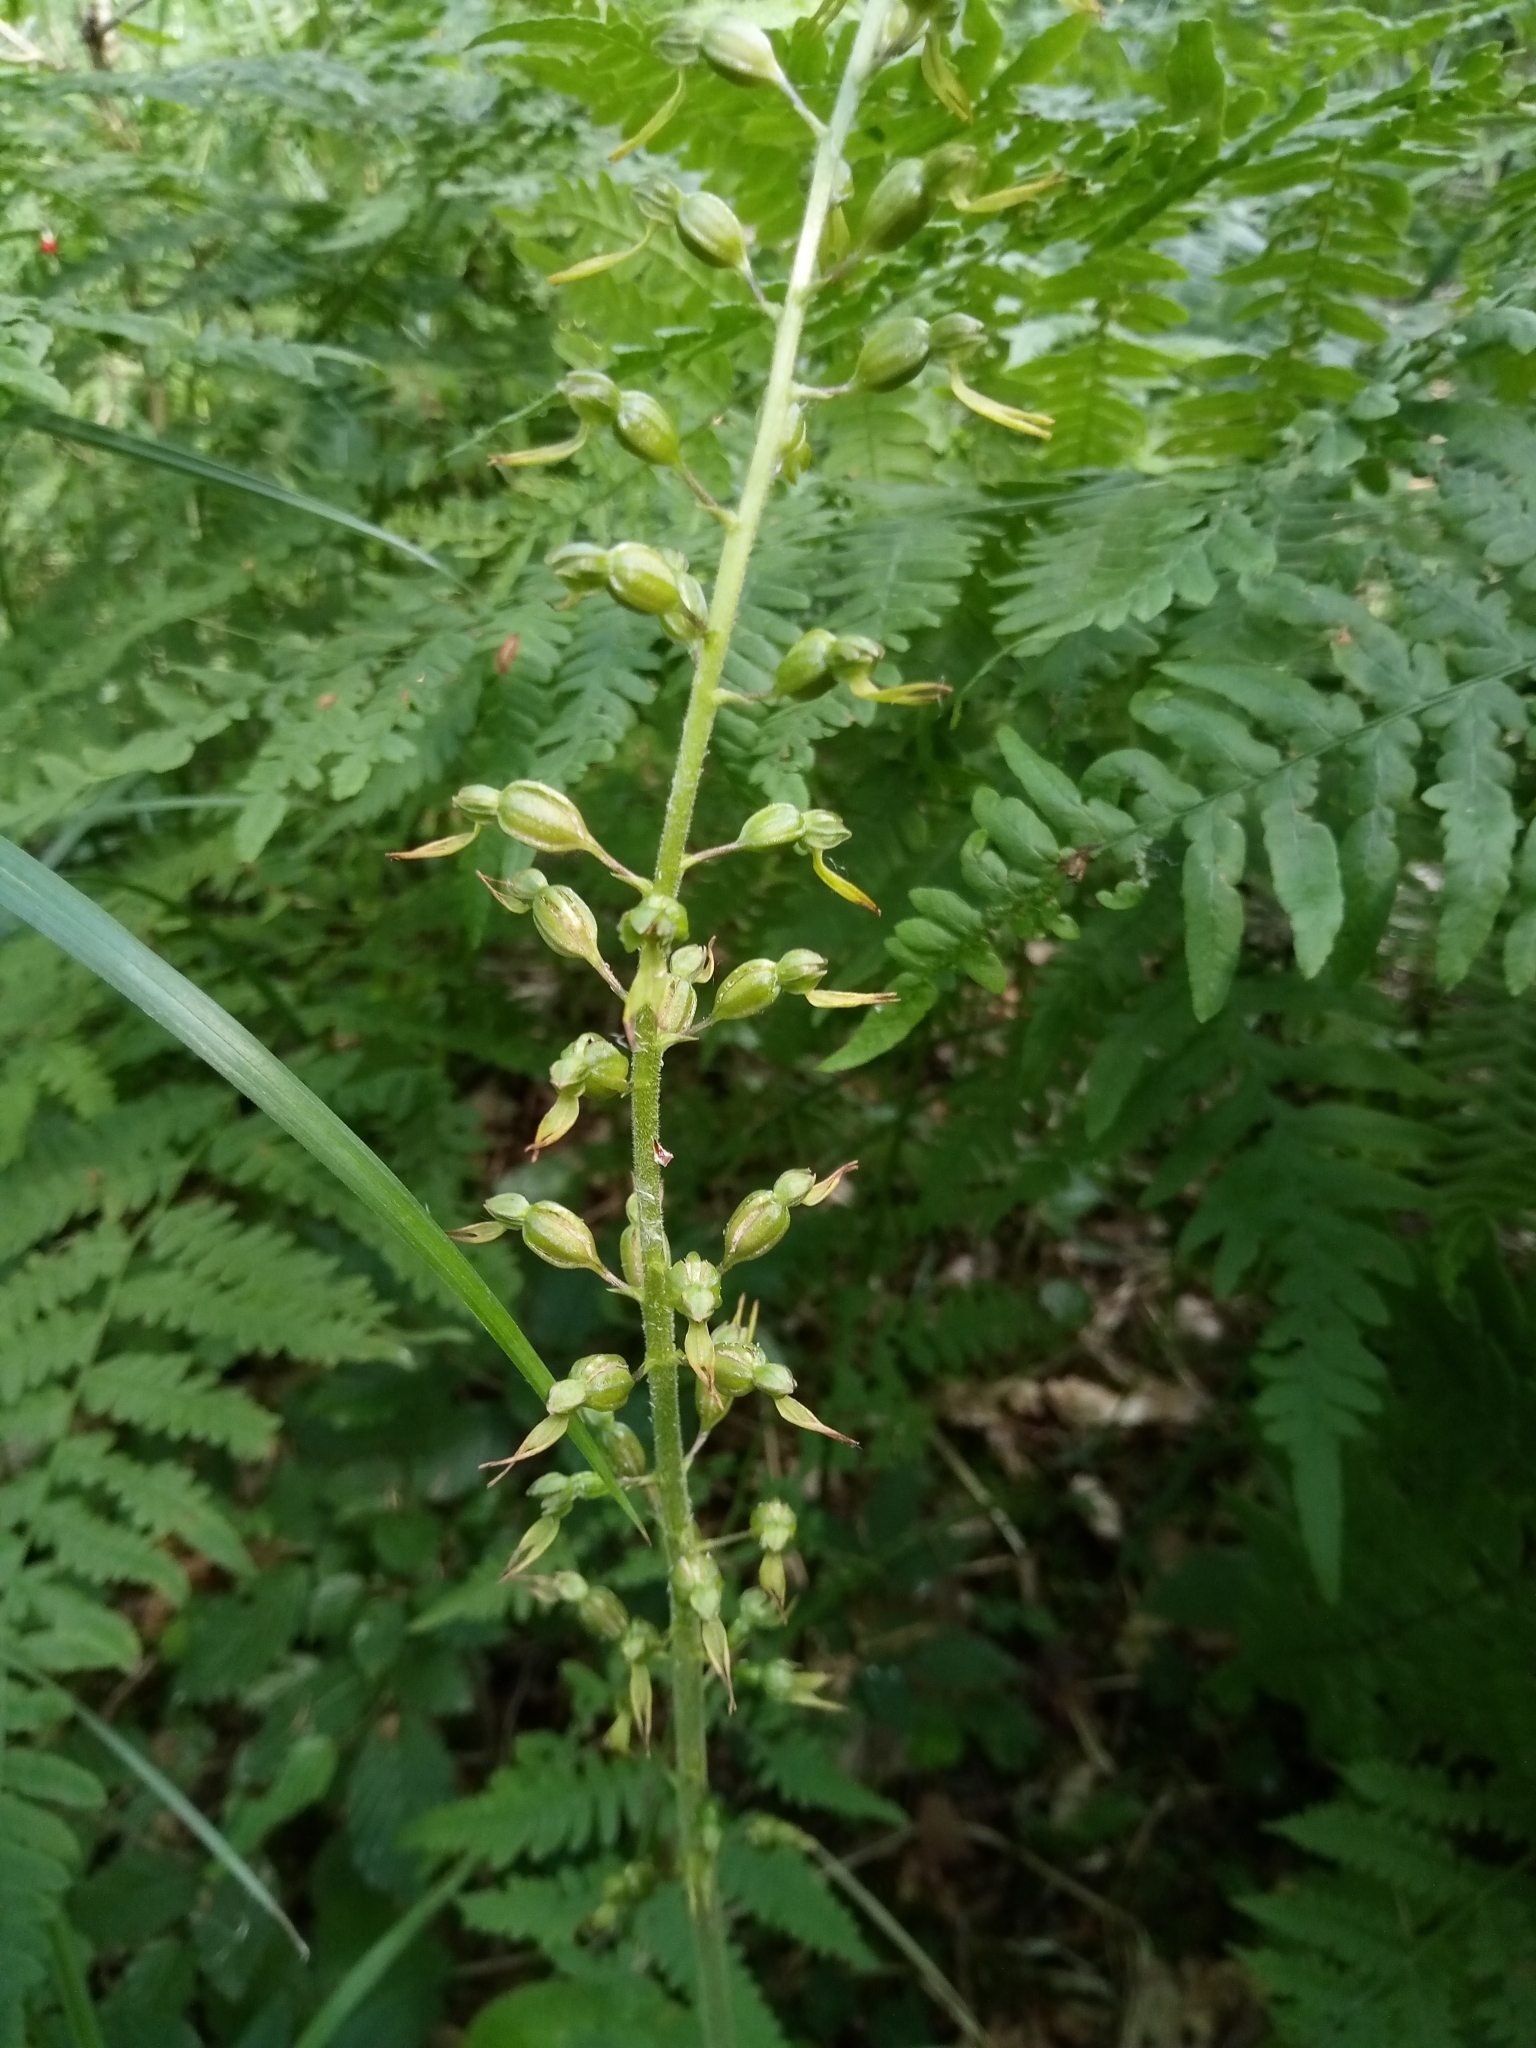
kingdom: Plantae
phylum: Tracheophyta
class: Liliopsida
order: Asparagales
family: Orchidaceae
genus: Neottia
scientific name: Neottia ovata
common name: Common twayblade
